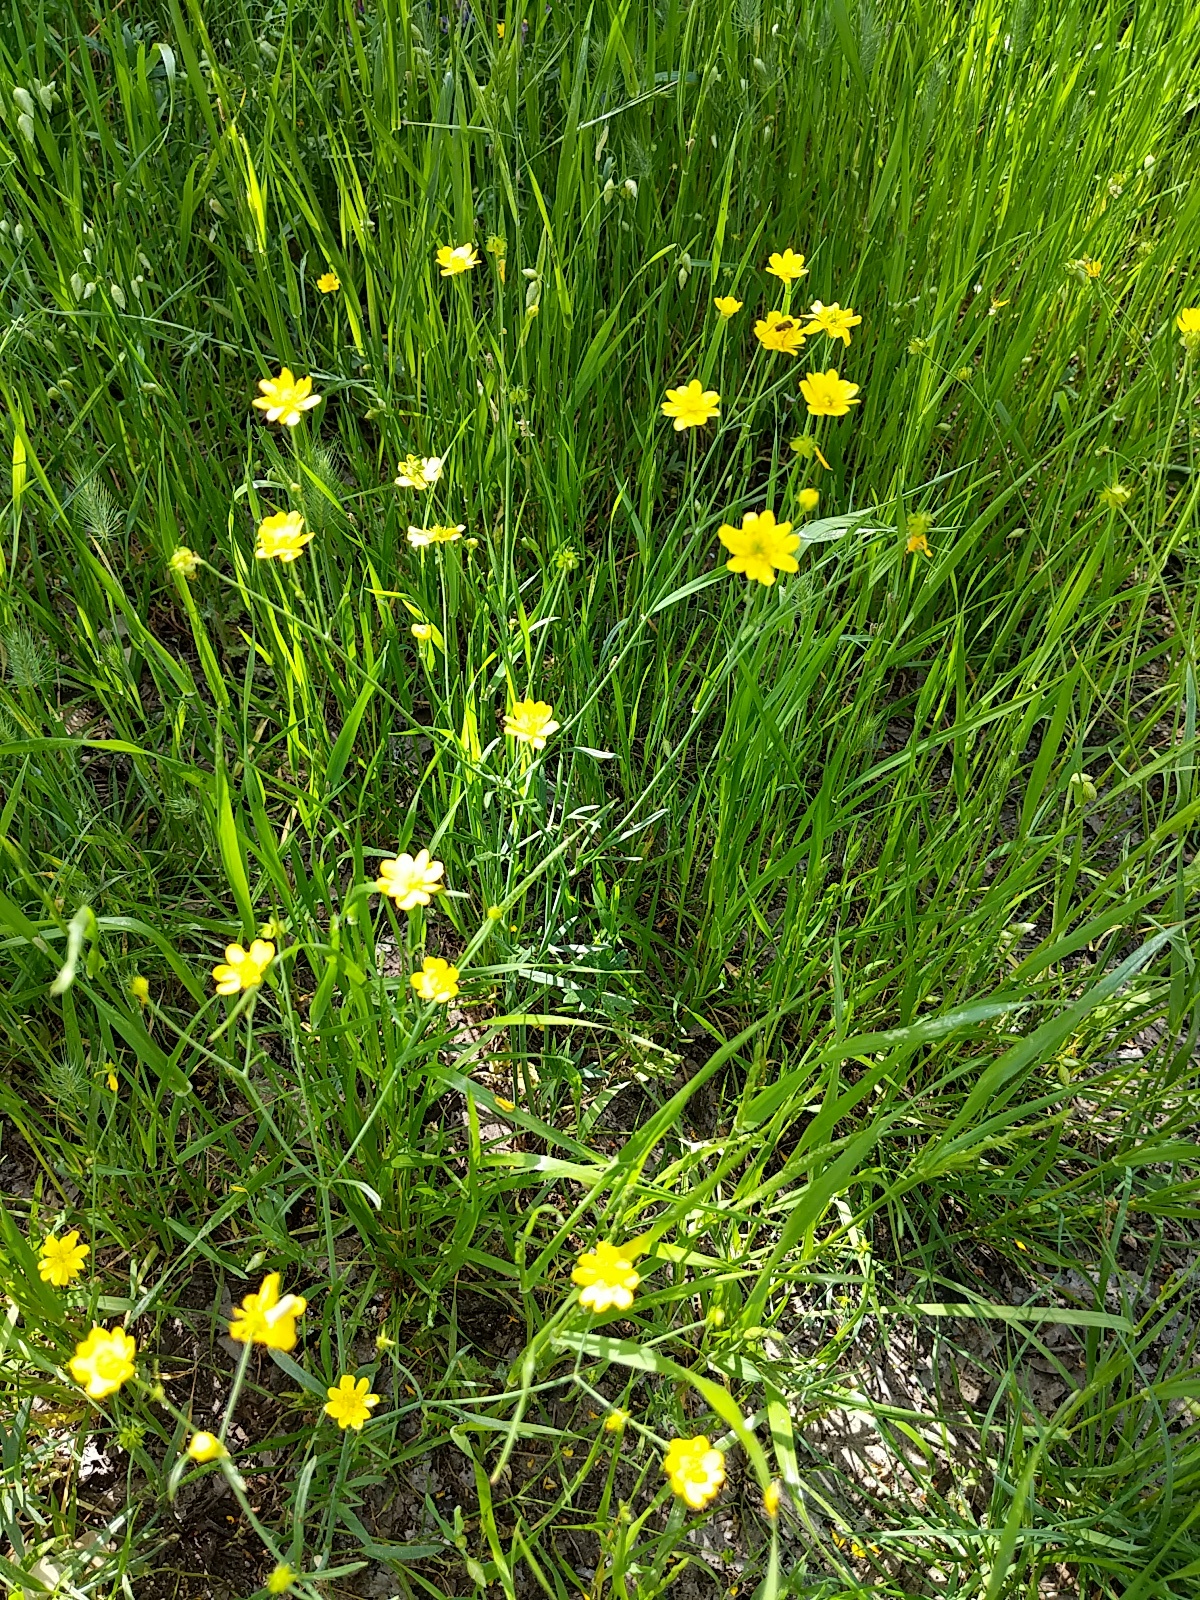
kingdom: Plantae
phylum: Tracheophyta
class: Magnoliopsida
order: Ranunculales
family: Ranunculaceae
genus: Ranunculus
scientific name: Ranunculus californicus
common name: California buttercup
